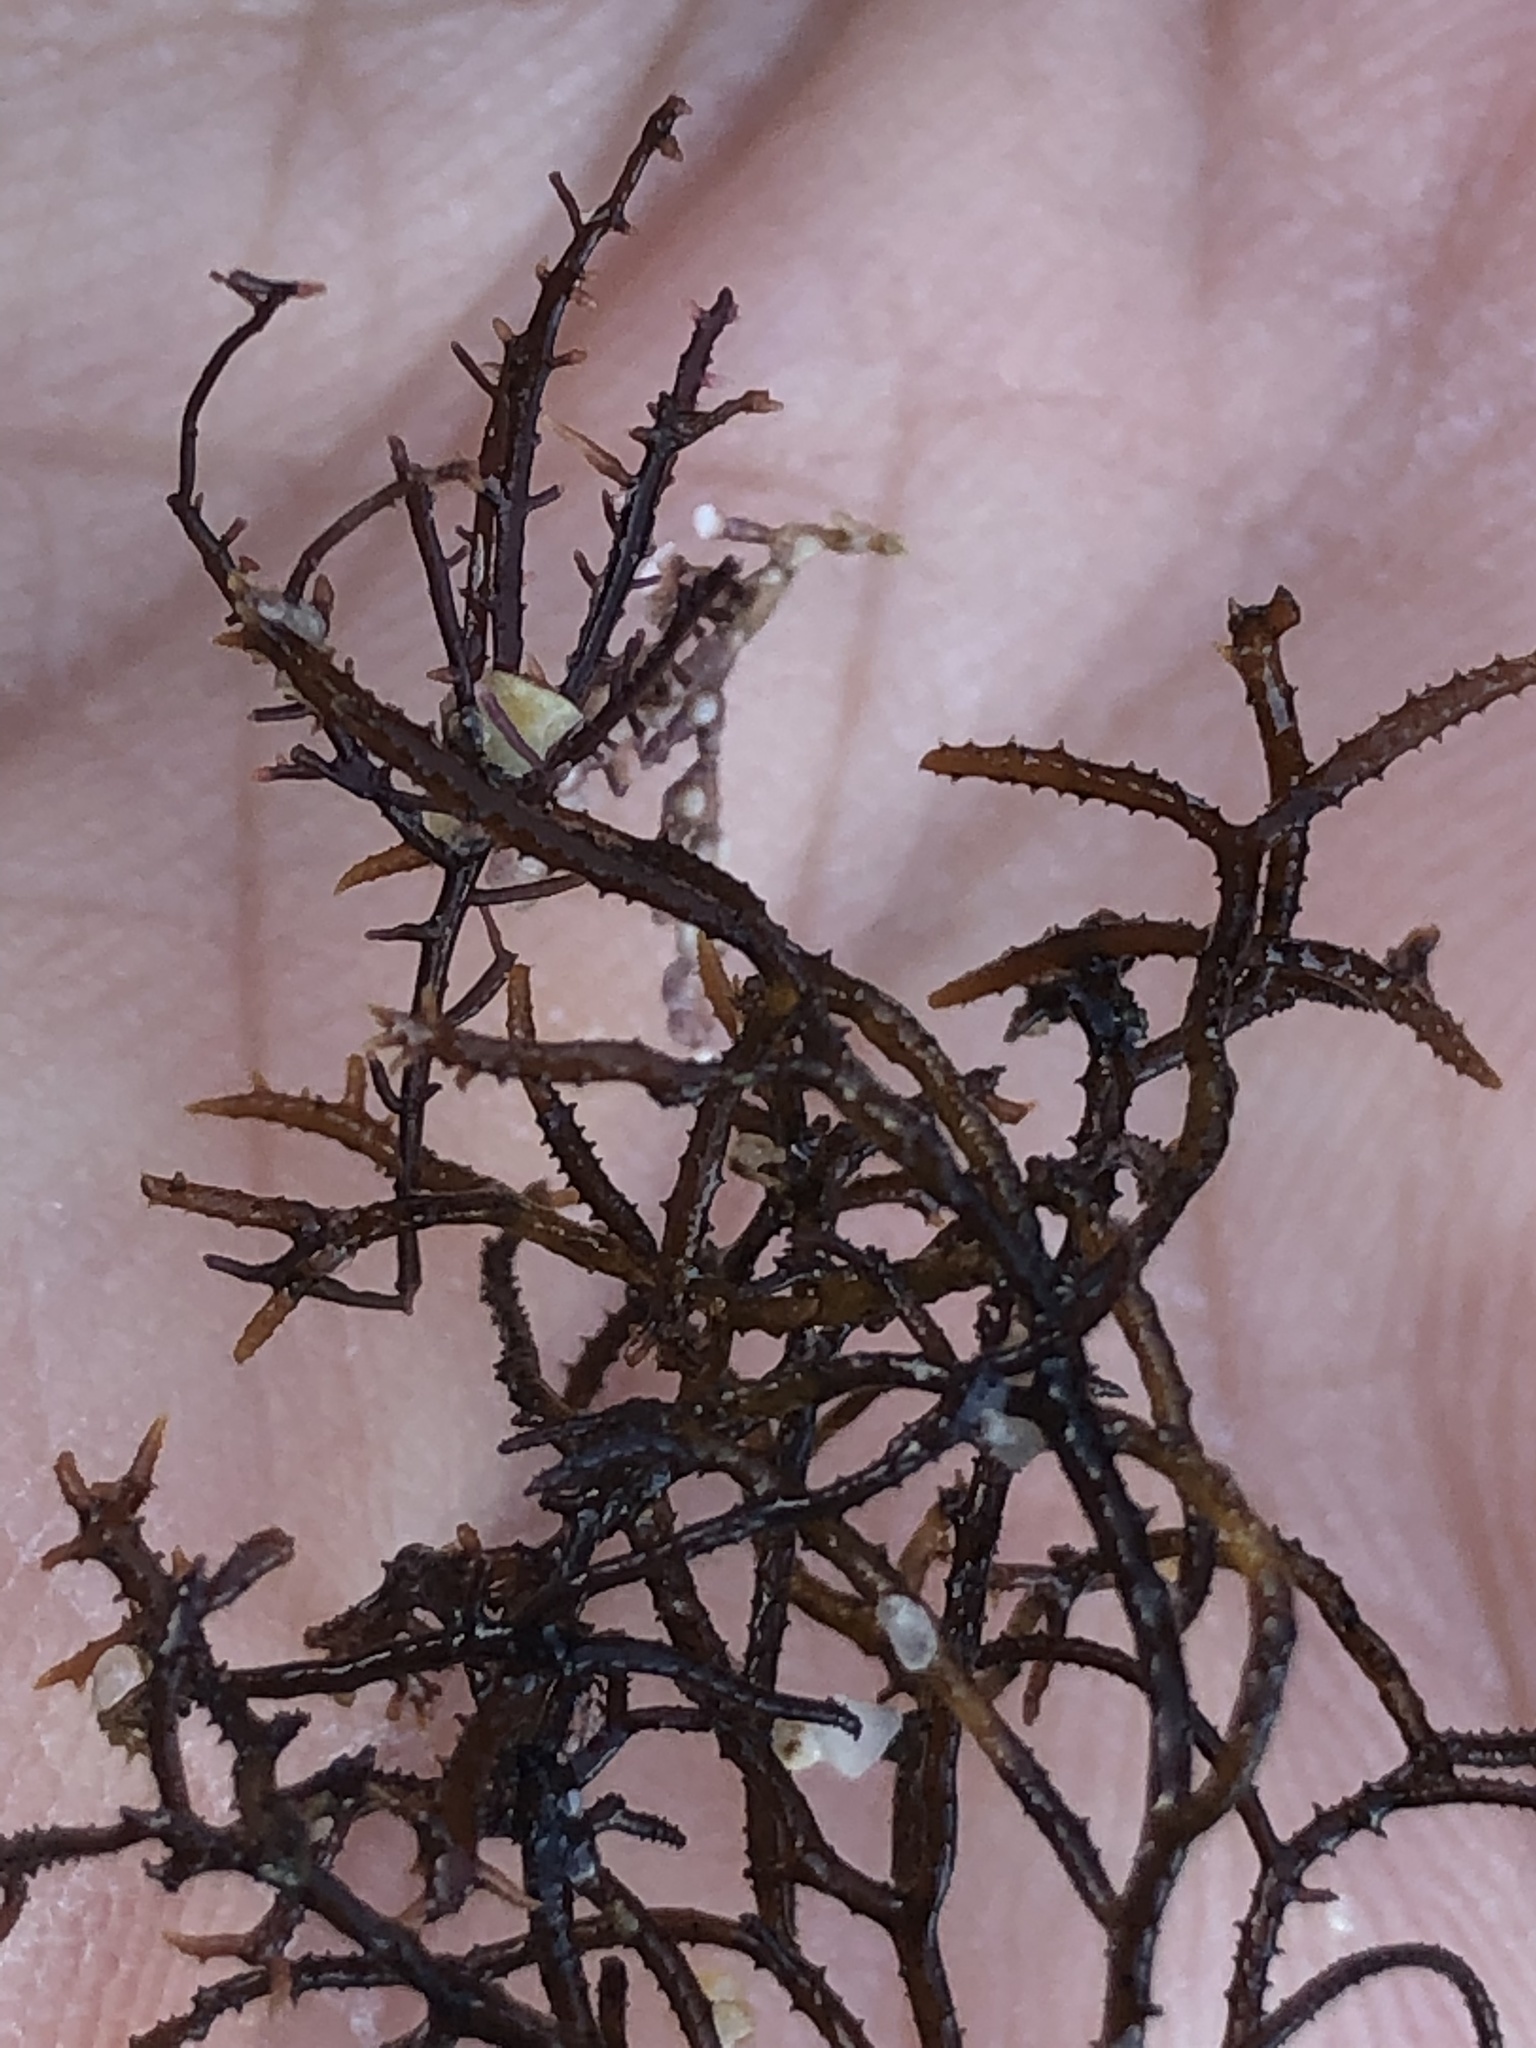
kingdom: Plantae
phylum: Rhodophyta
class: Florideophyceae
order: Gigartinales
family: Endocladiaceae
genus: Endocladia
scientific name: Endocladia muricata
